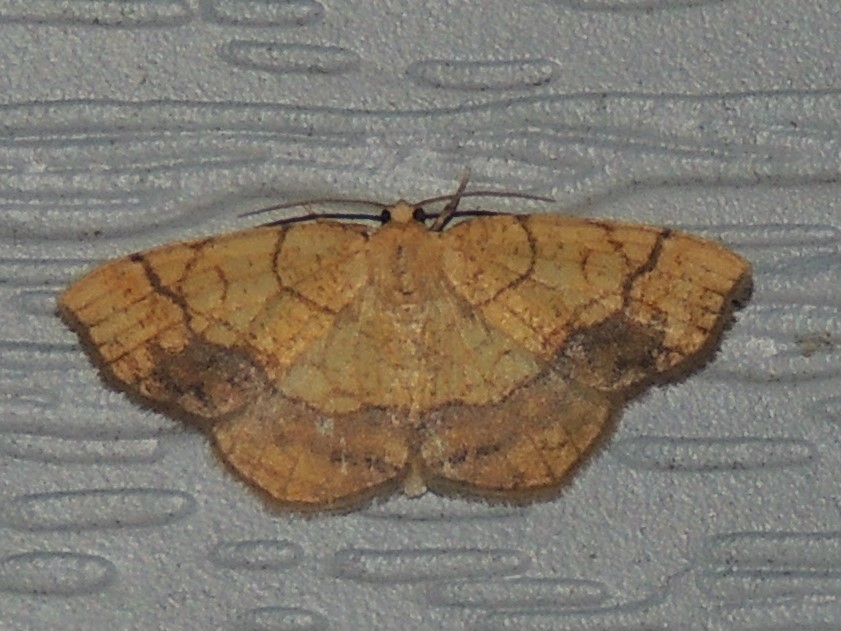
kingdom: Animalia
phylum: Arthropoda
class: Insecta
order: Lepidoptera
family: Geometridae
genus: Nematocampa
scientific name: Nematocampa resistaria
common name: Horned spanworm moth
